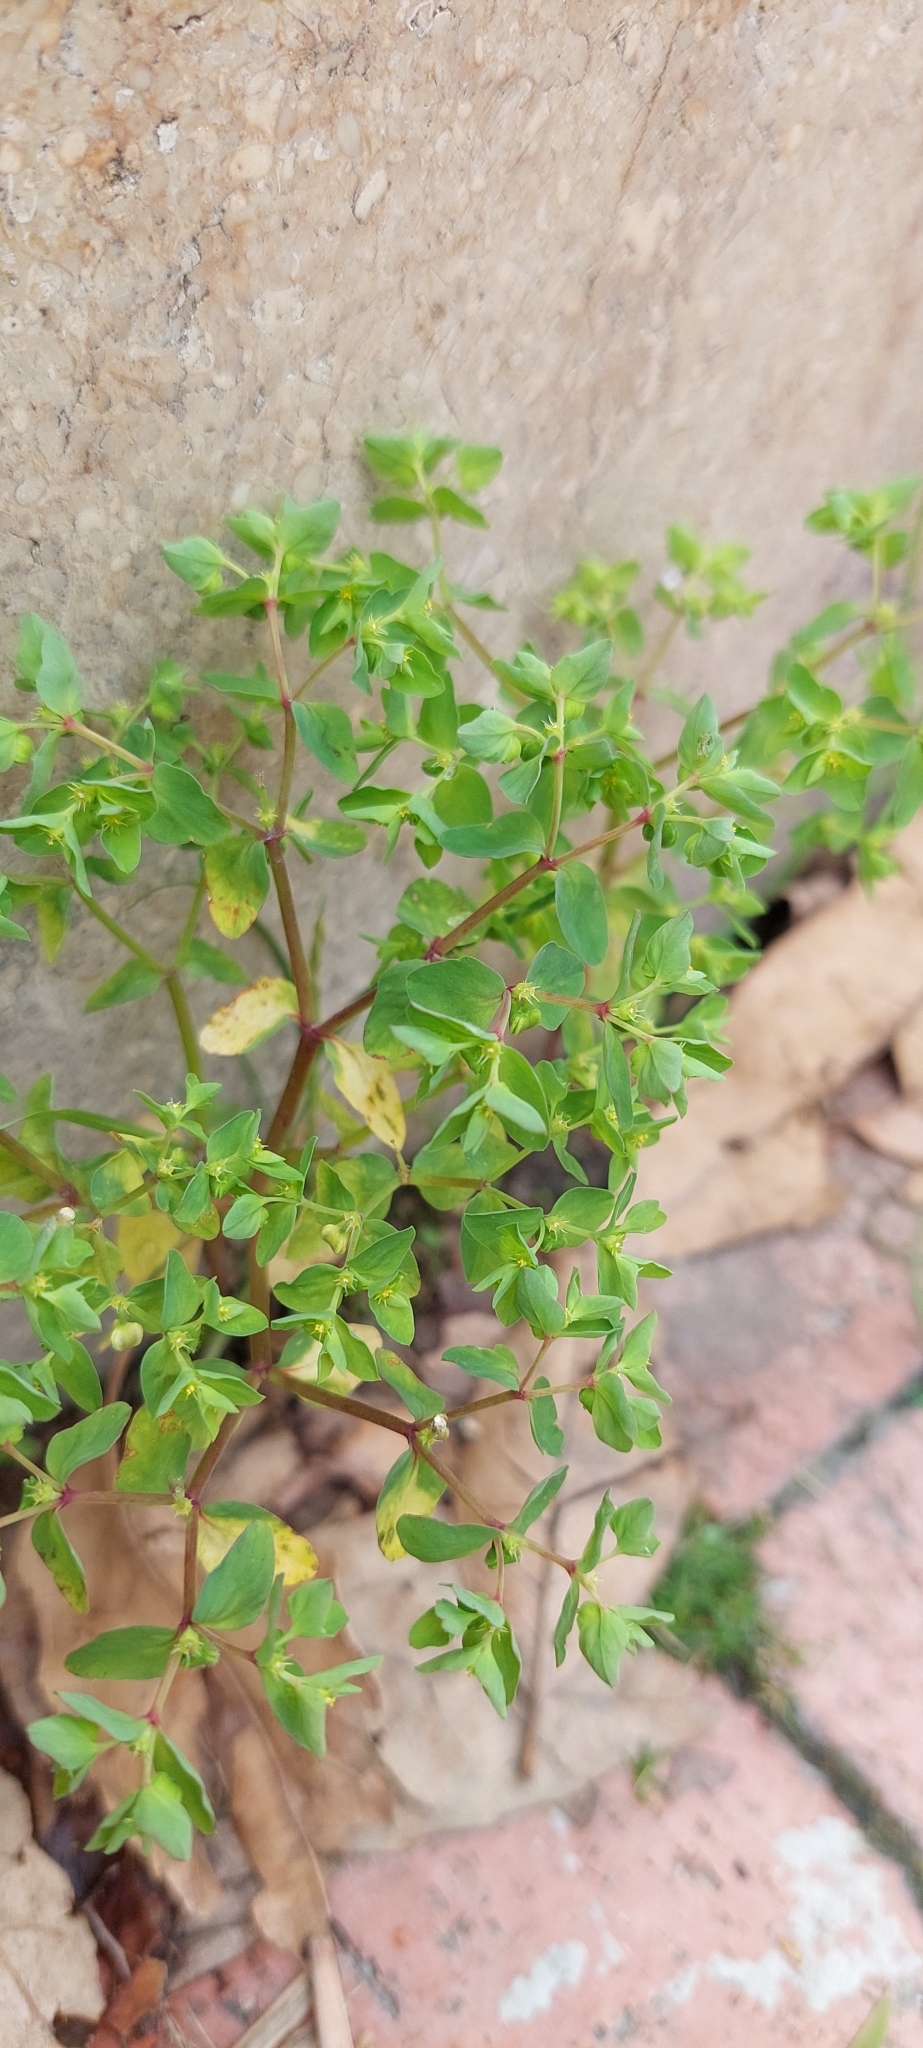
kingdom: Plantae
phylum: Tracheophyta
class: Magnoliopsida
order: Malpighiales
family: Euphorbiaceae
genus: Euphorbia
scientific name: Euphorbia peplus
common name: Petty spurge
